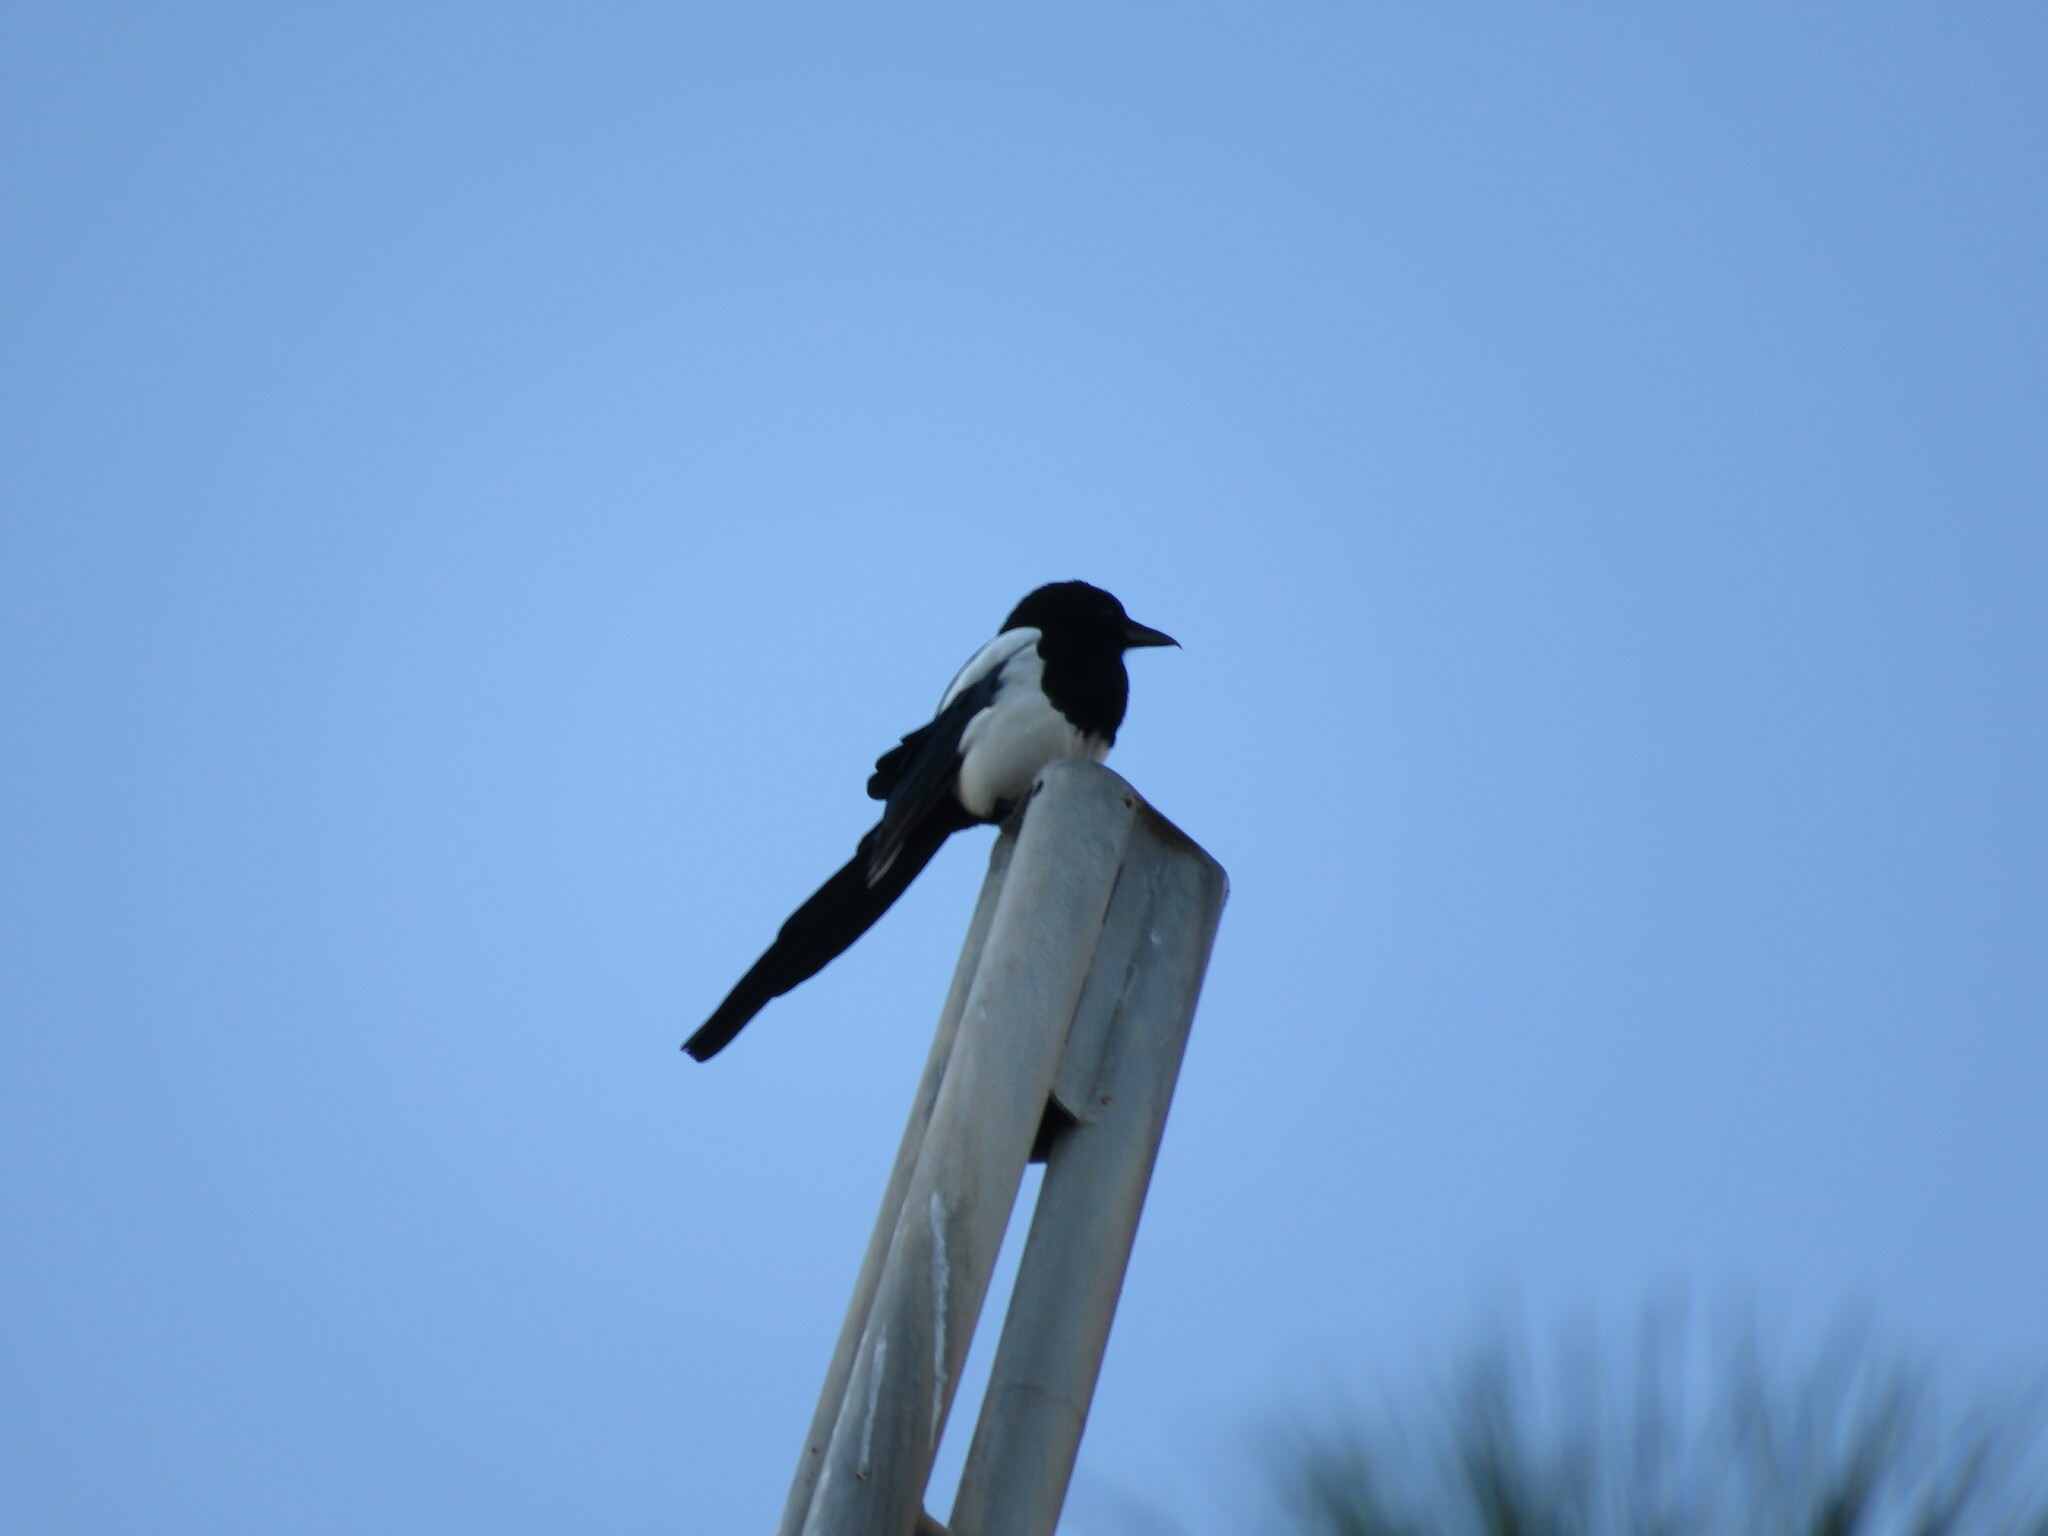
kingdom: Animalia
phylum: Chordata
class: Aves
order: Passeriformes
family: Corvidae
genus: Pica
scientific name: Pica pica
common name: Eurasian magpie
